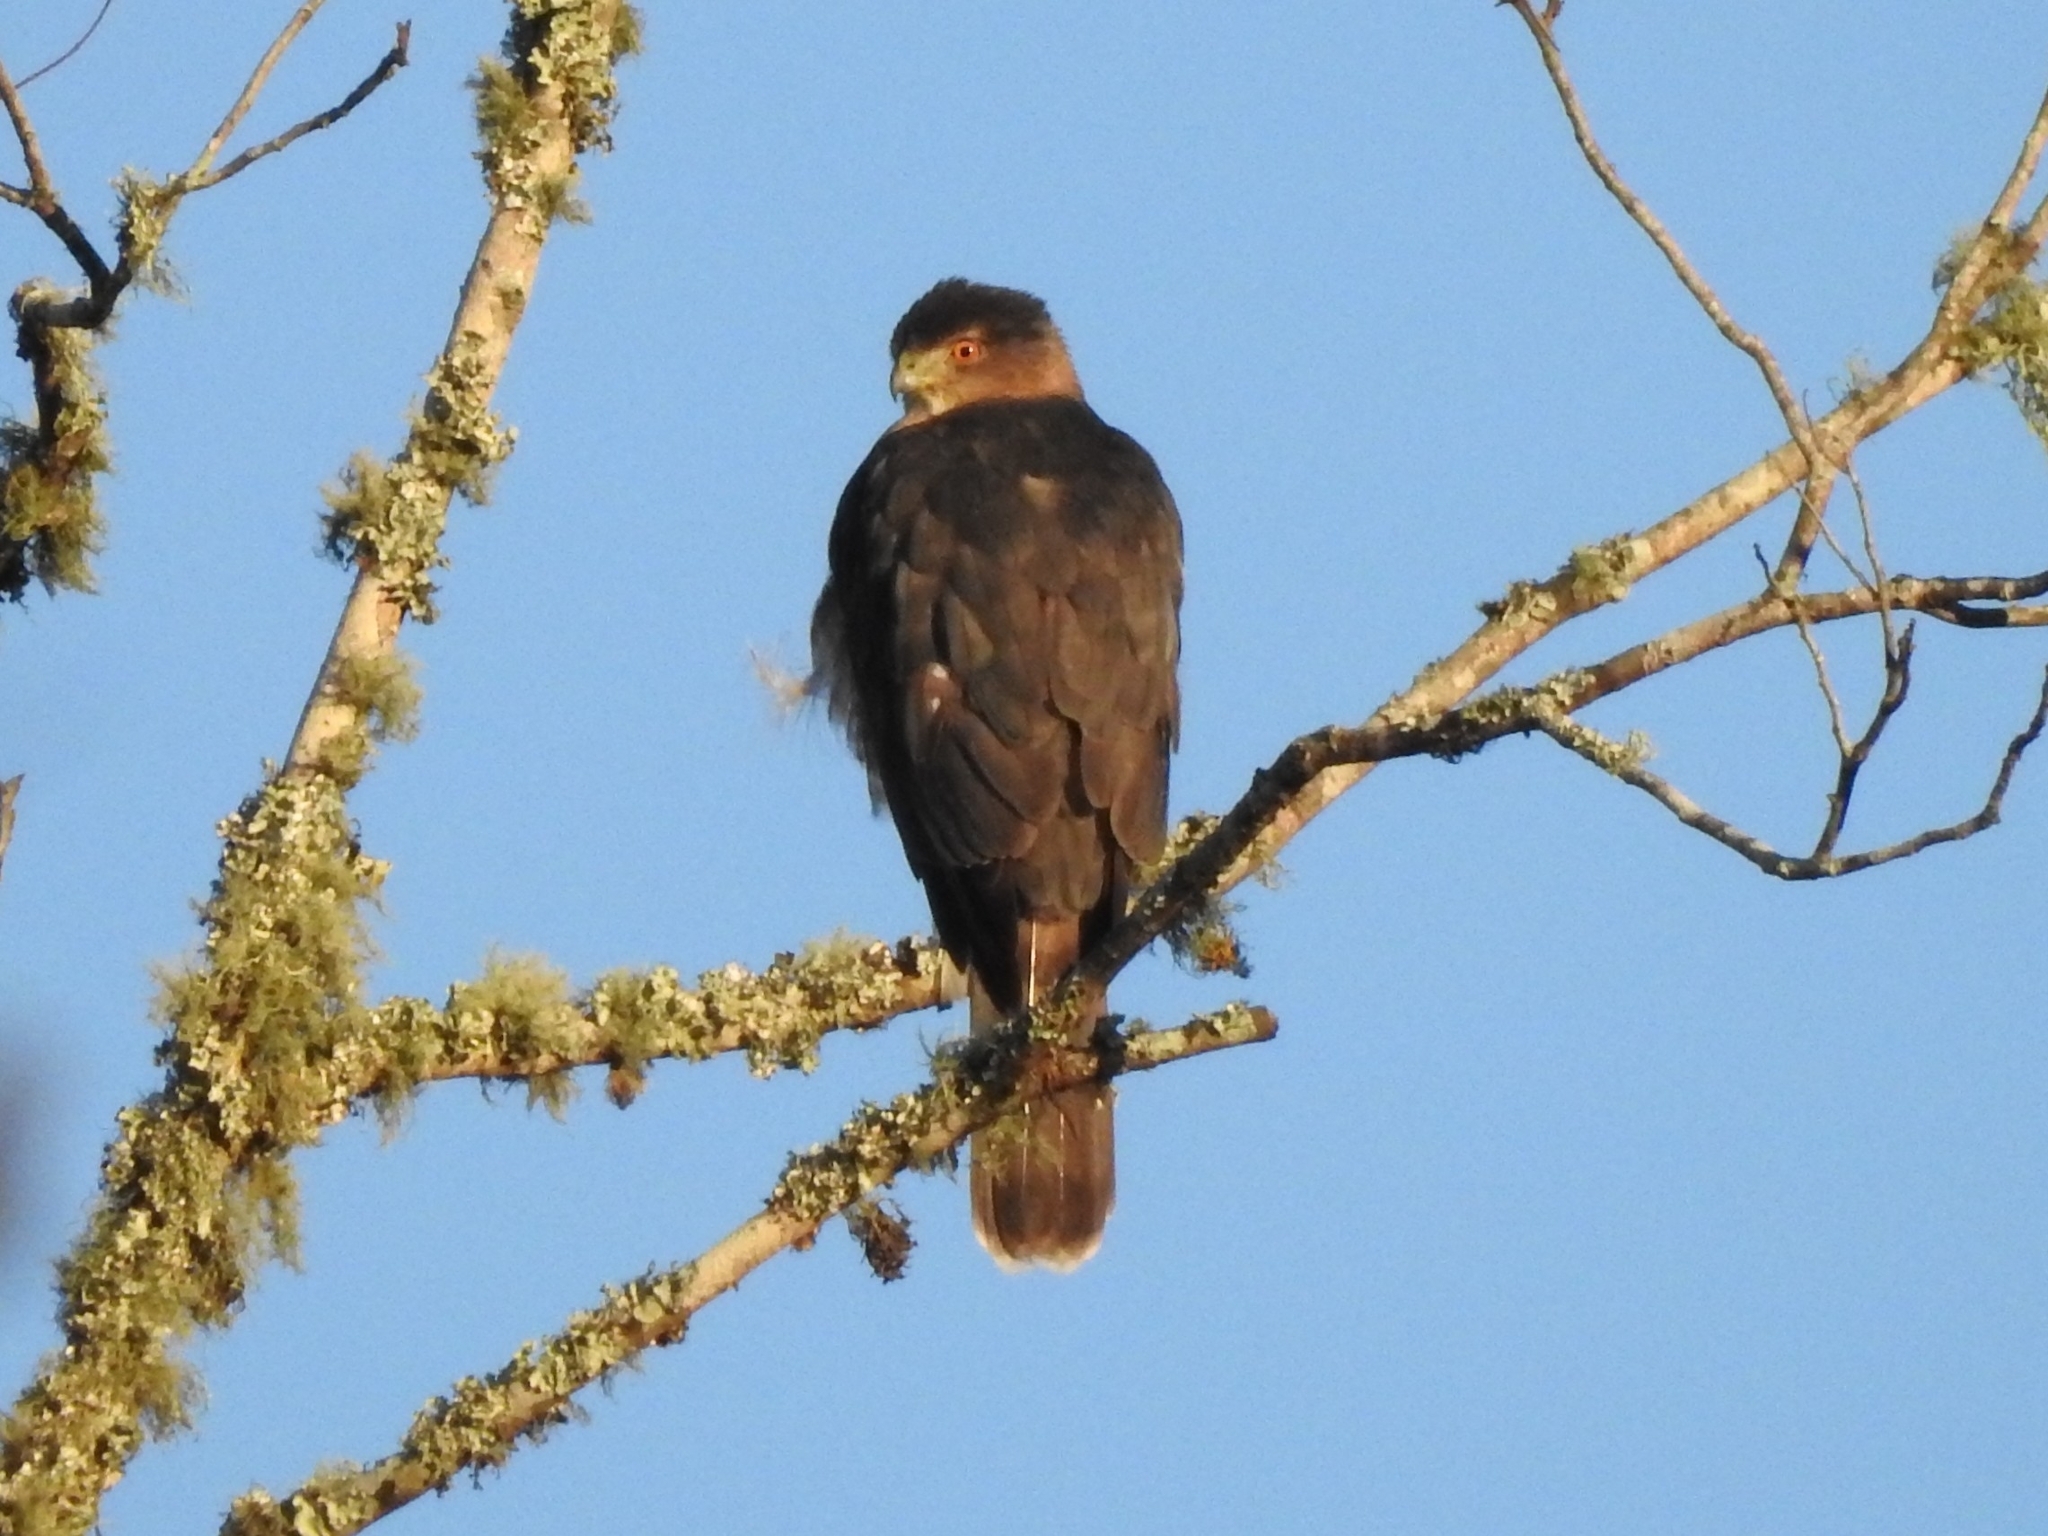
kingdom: Animalia
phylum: Chordata
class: Aves
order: Accipitriformes
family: Accipitridae
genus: Accipiter
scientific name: Accipiter cooperii
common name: Cooper's hawk
